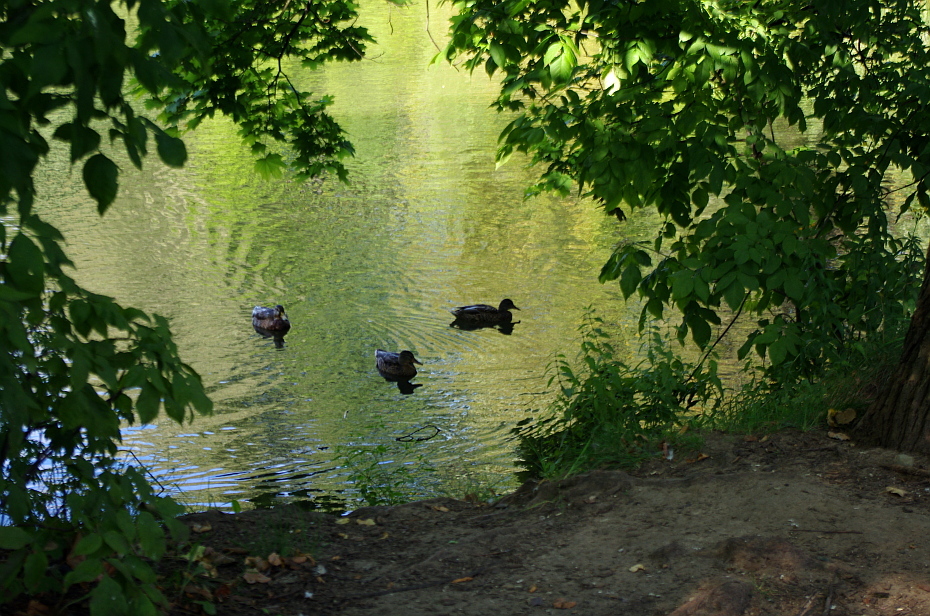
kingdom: Animalia
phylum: Chordata
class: Aves
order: Anseriformes
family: Anatidae
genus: Anas
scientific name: Anas platyrhynchos
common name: Mallard
